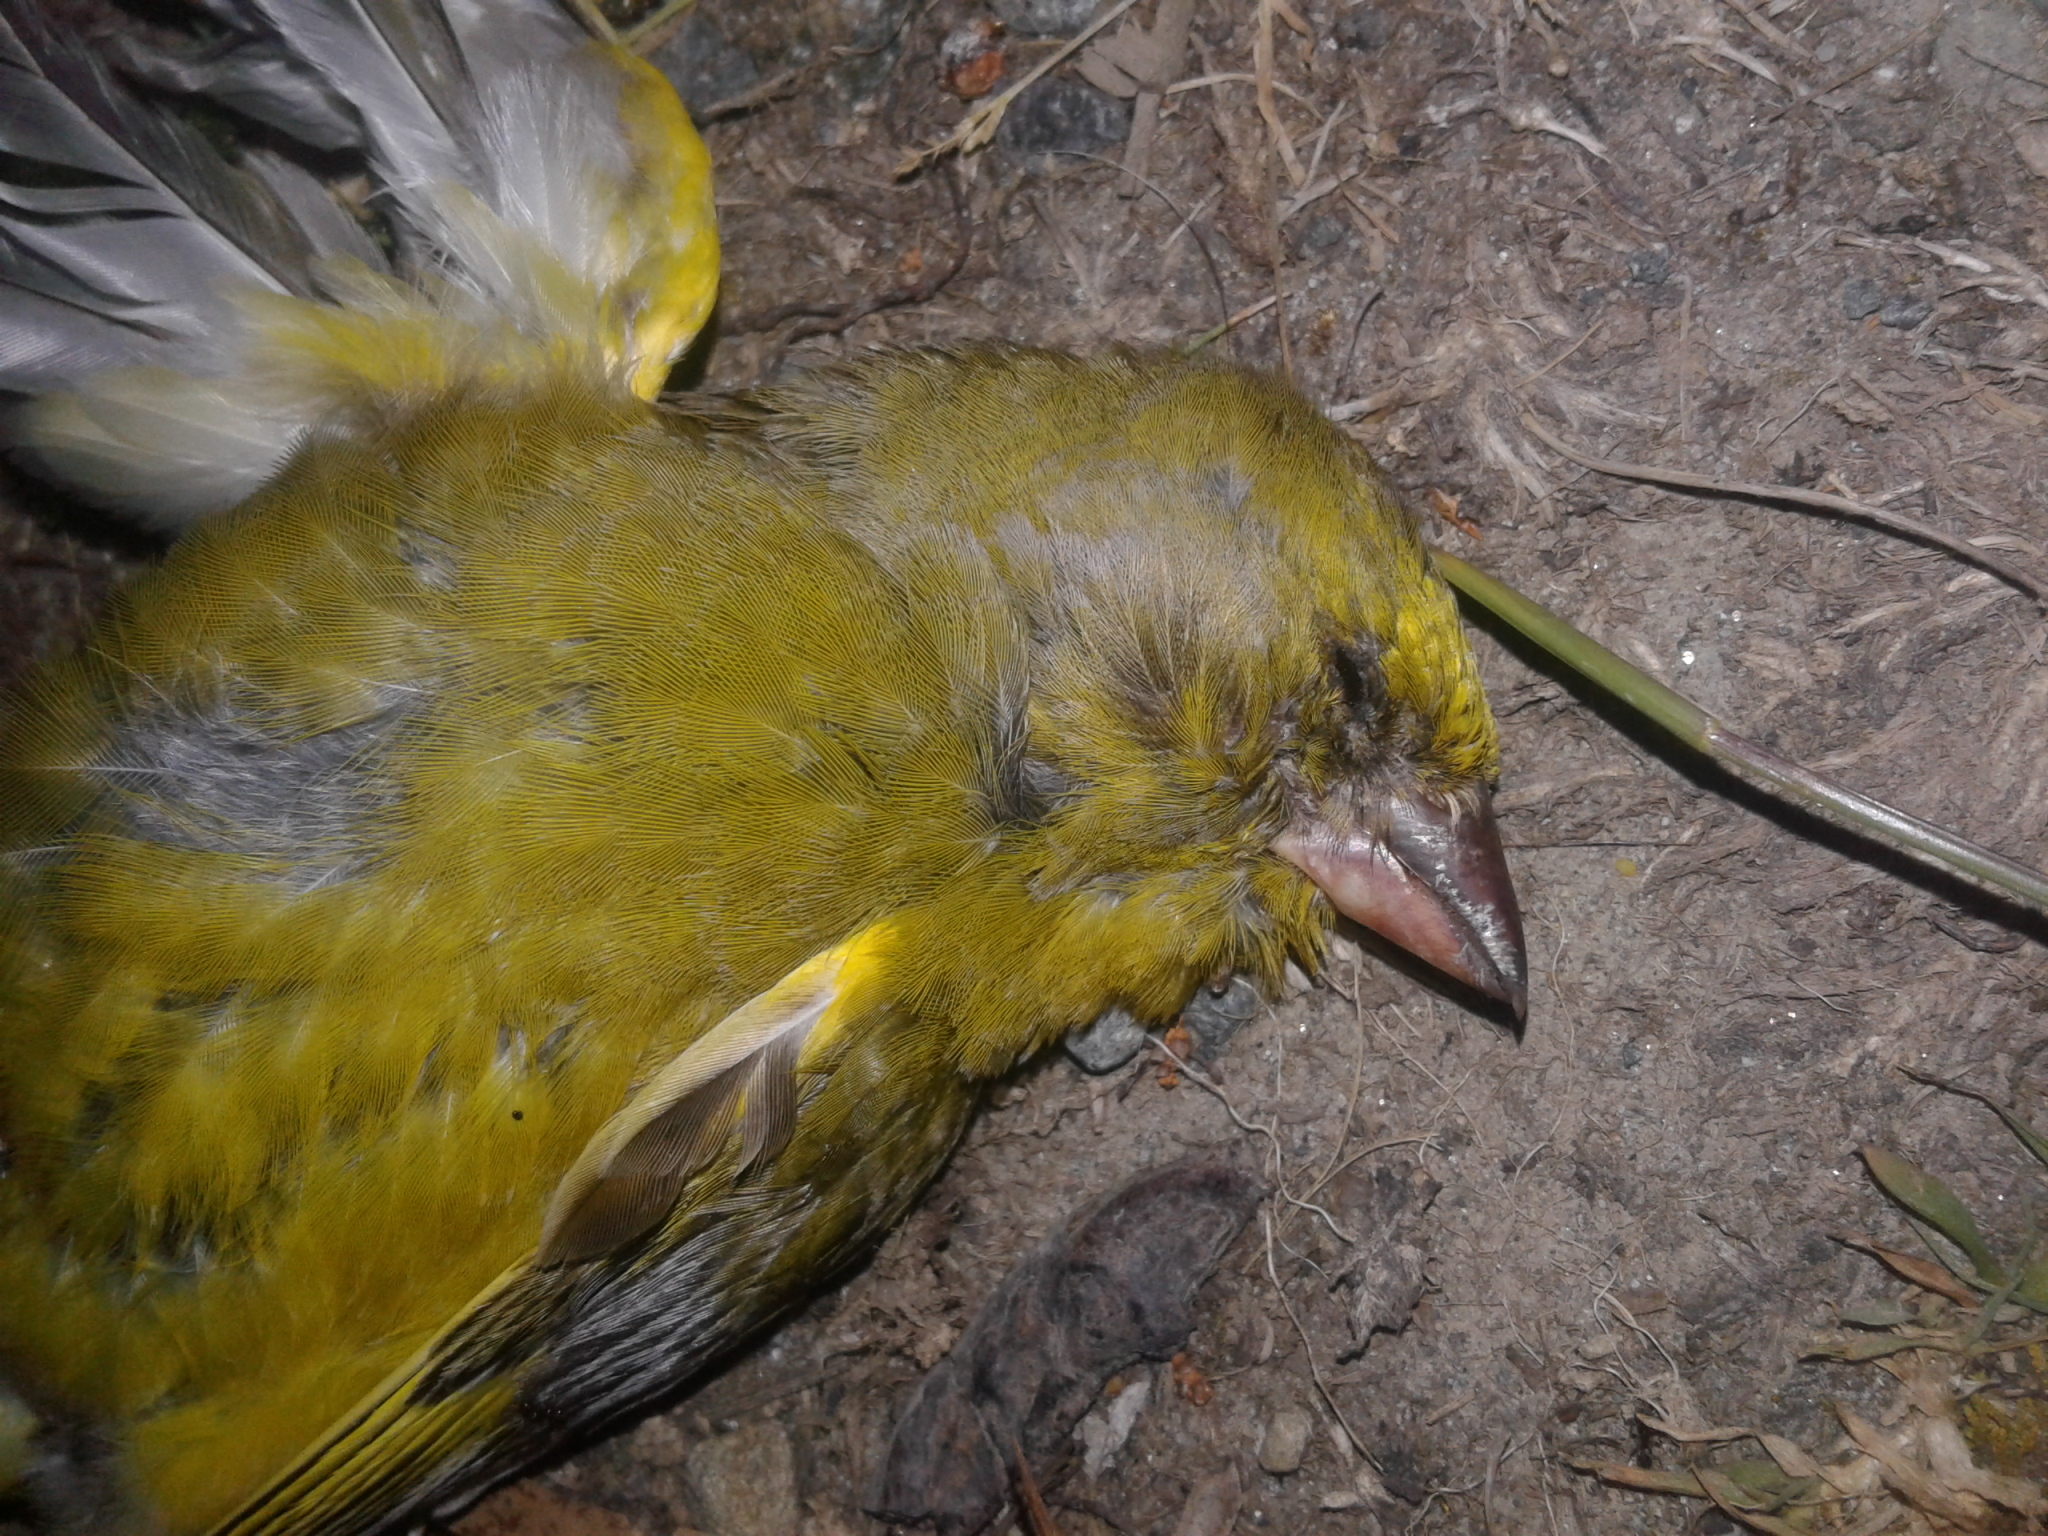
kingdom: Plantae
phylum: Tracheophyta
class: Liliopsida
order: Poales
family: Poaceae
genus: Chloris
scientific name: Chloris chloris
